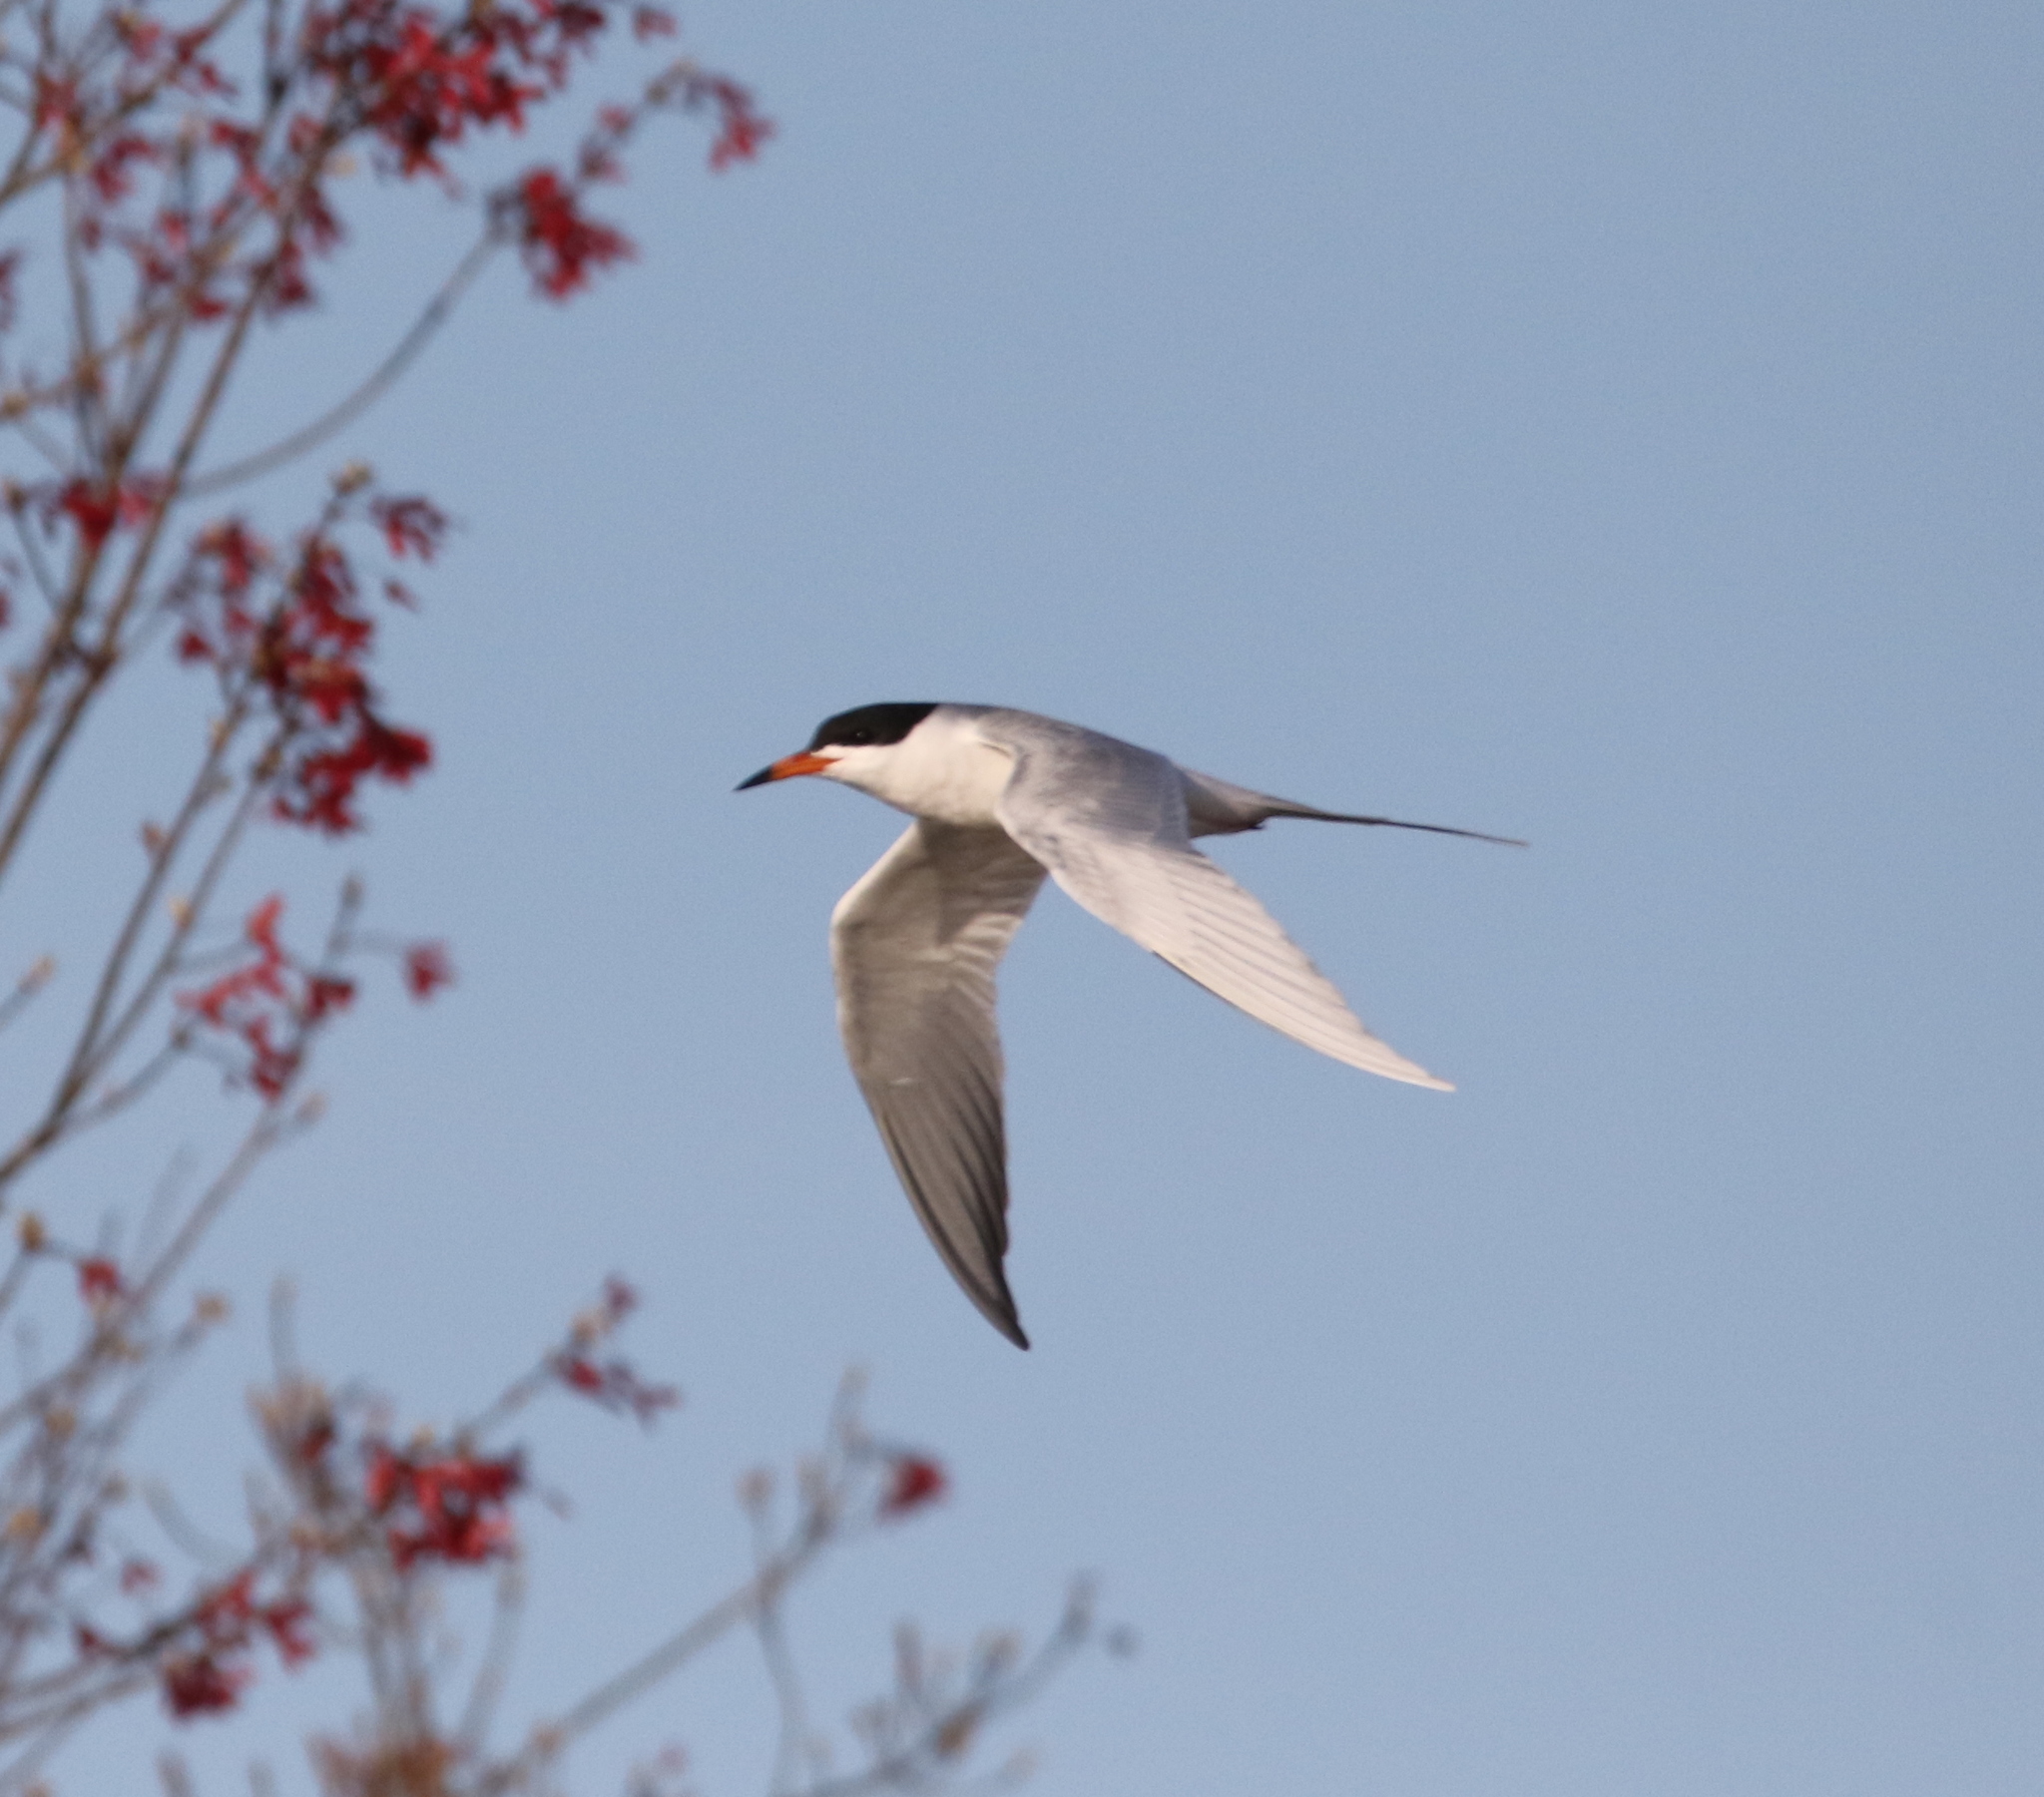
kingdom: Animalia
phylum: Chordata
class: Aves
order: Charadriiformes
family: Laridae
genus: Sterna
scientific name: Sterna forsteri
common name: Forster's tern
